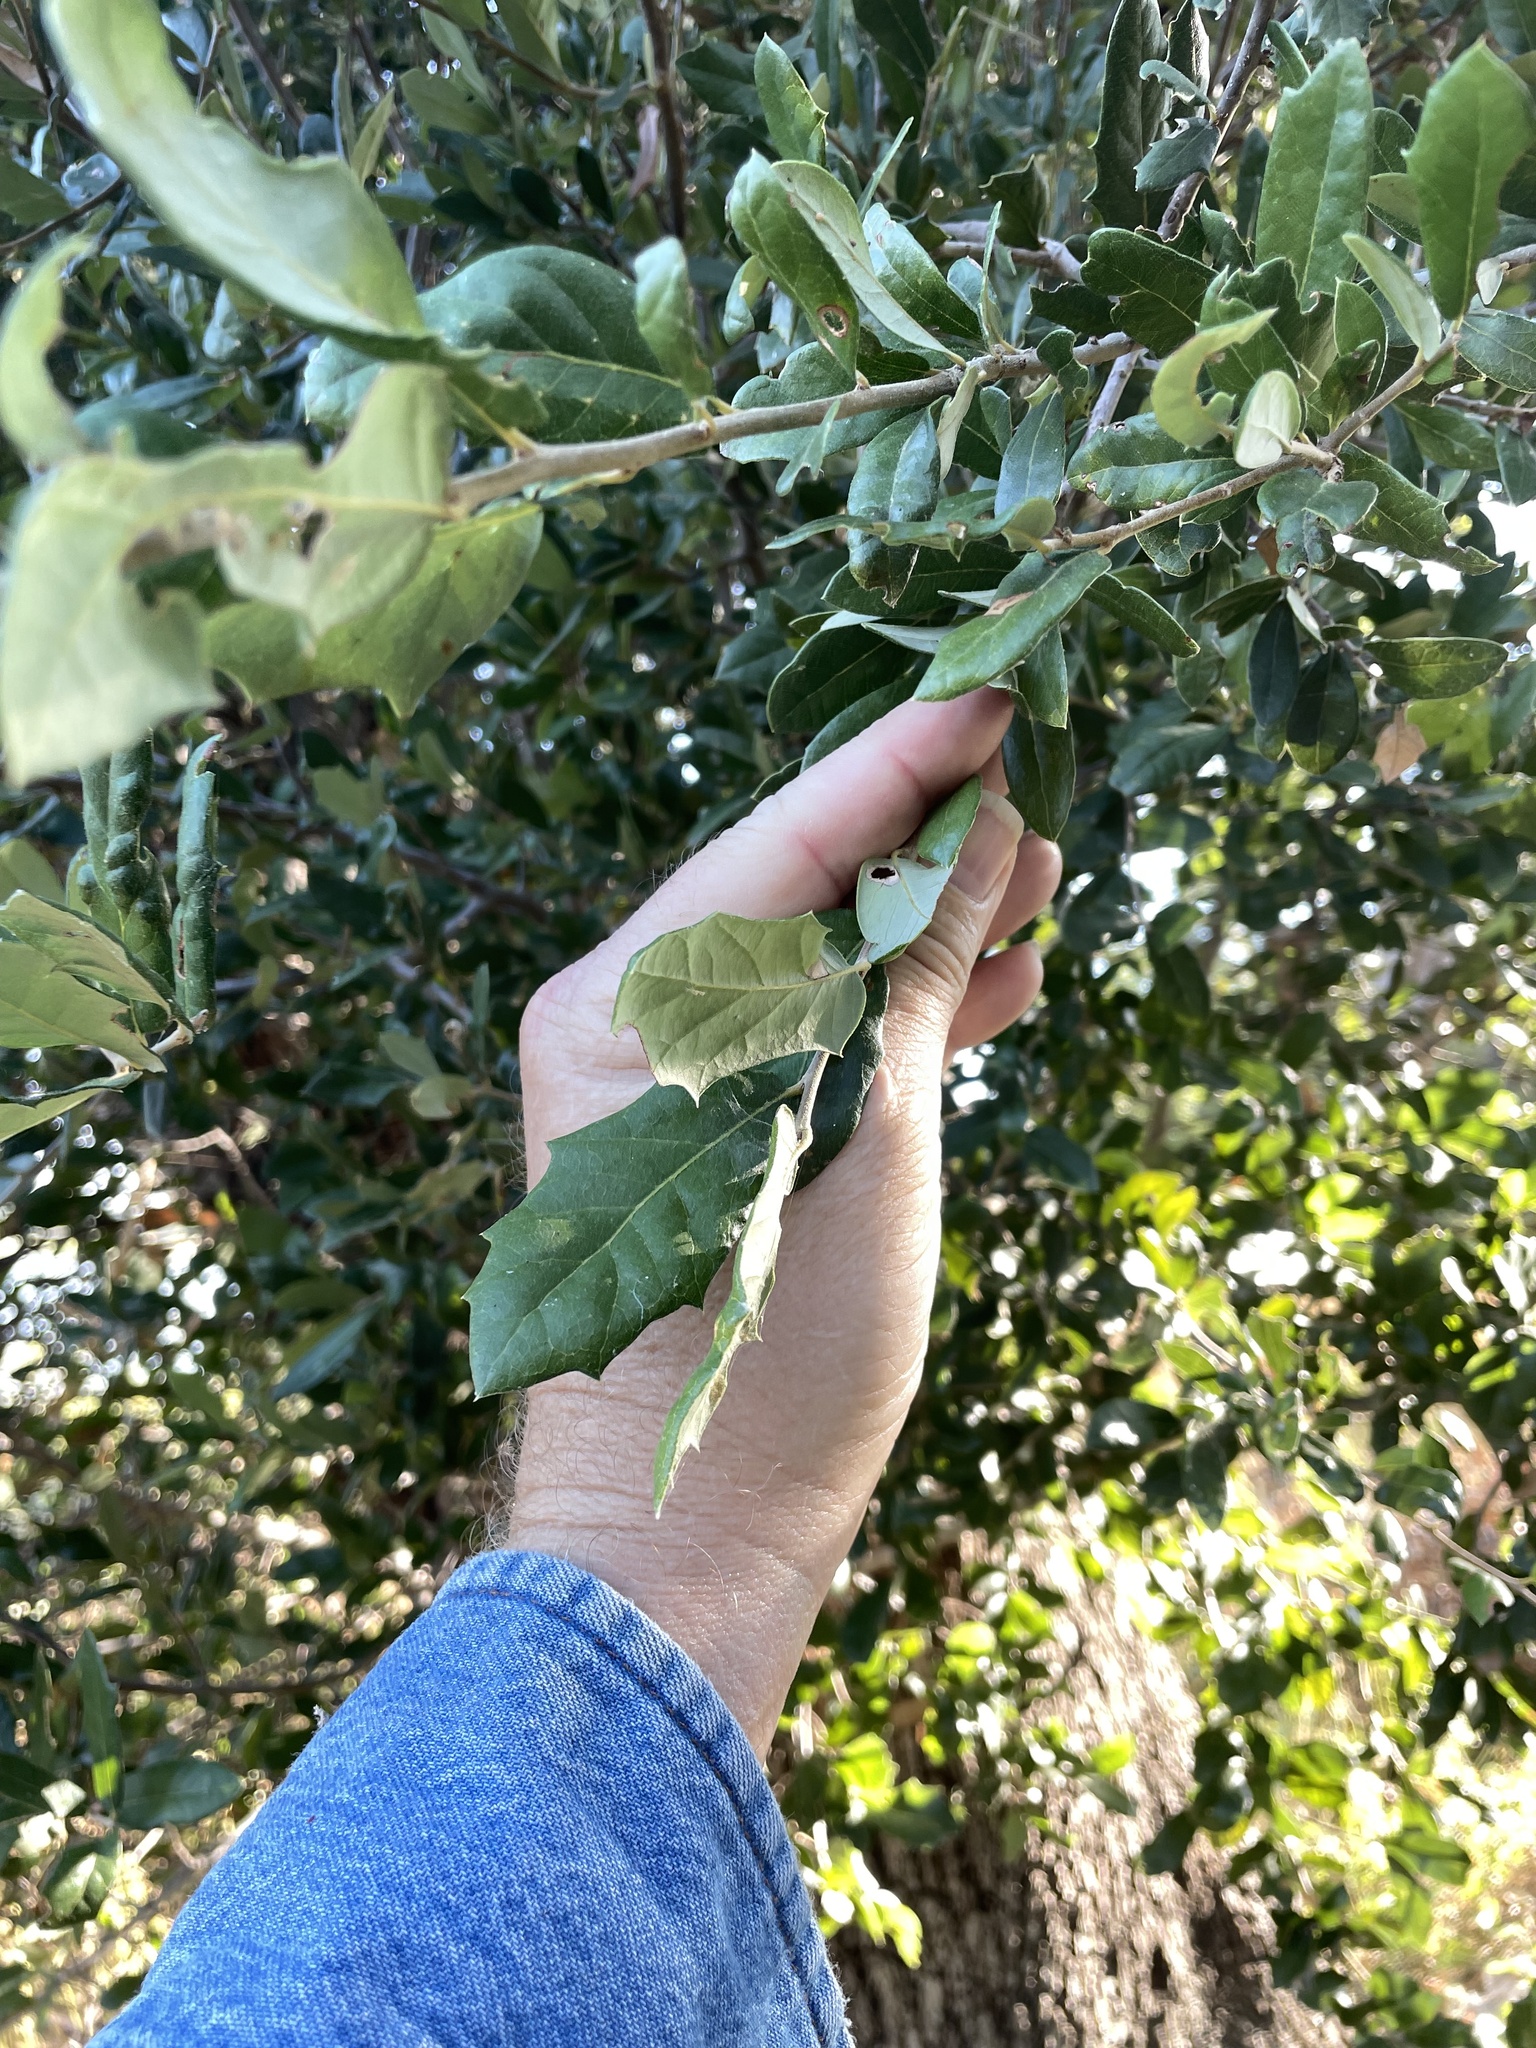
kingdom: Plantae
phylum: Tracheophyta
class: Magnoliopsida
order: Fagales
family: Fagaceae
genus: Quercus
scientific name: Quercus fusiformis
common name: Texas live oak
